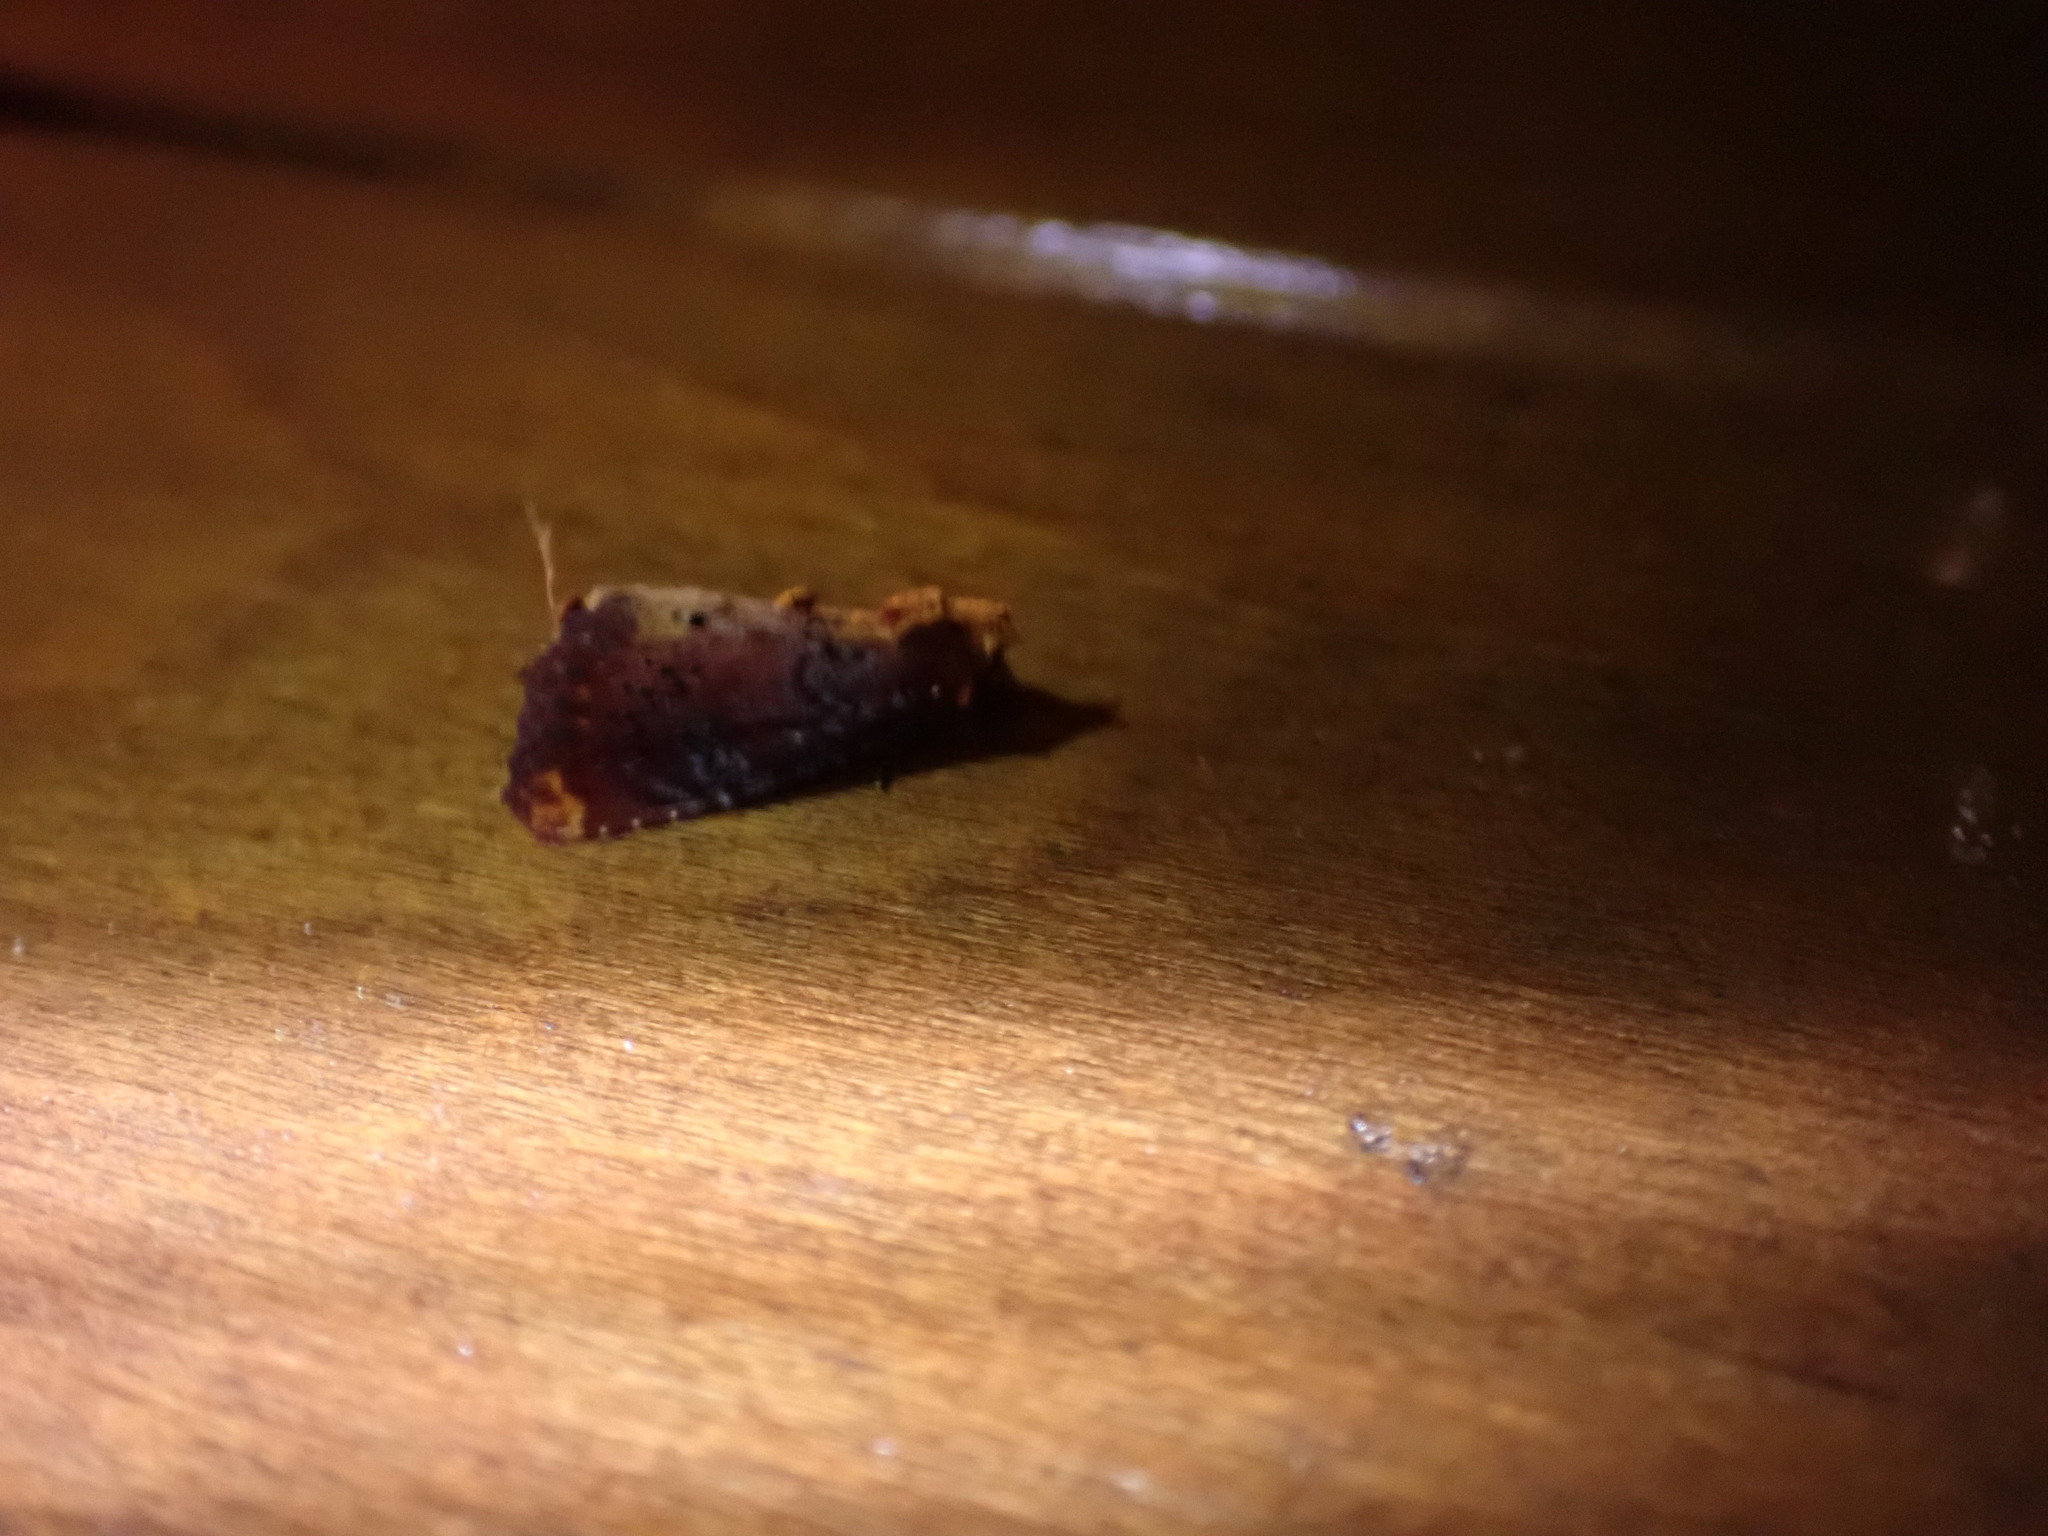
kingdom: Animalia
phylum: Arthropoda
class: Insecta
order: Lepidoptera
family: Noctuidae
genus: Achatodes
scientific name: Achatodes zeae
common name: Elder shoot borer
